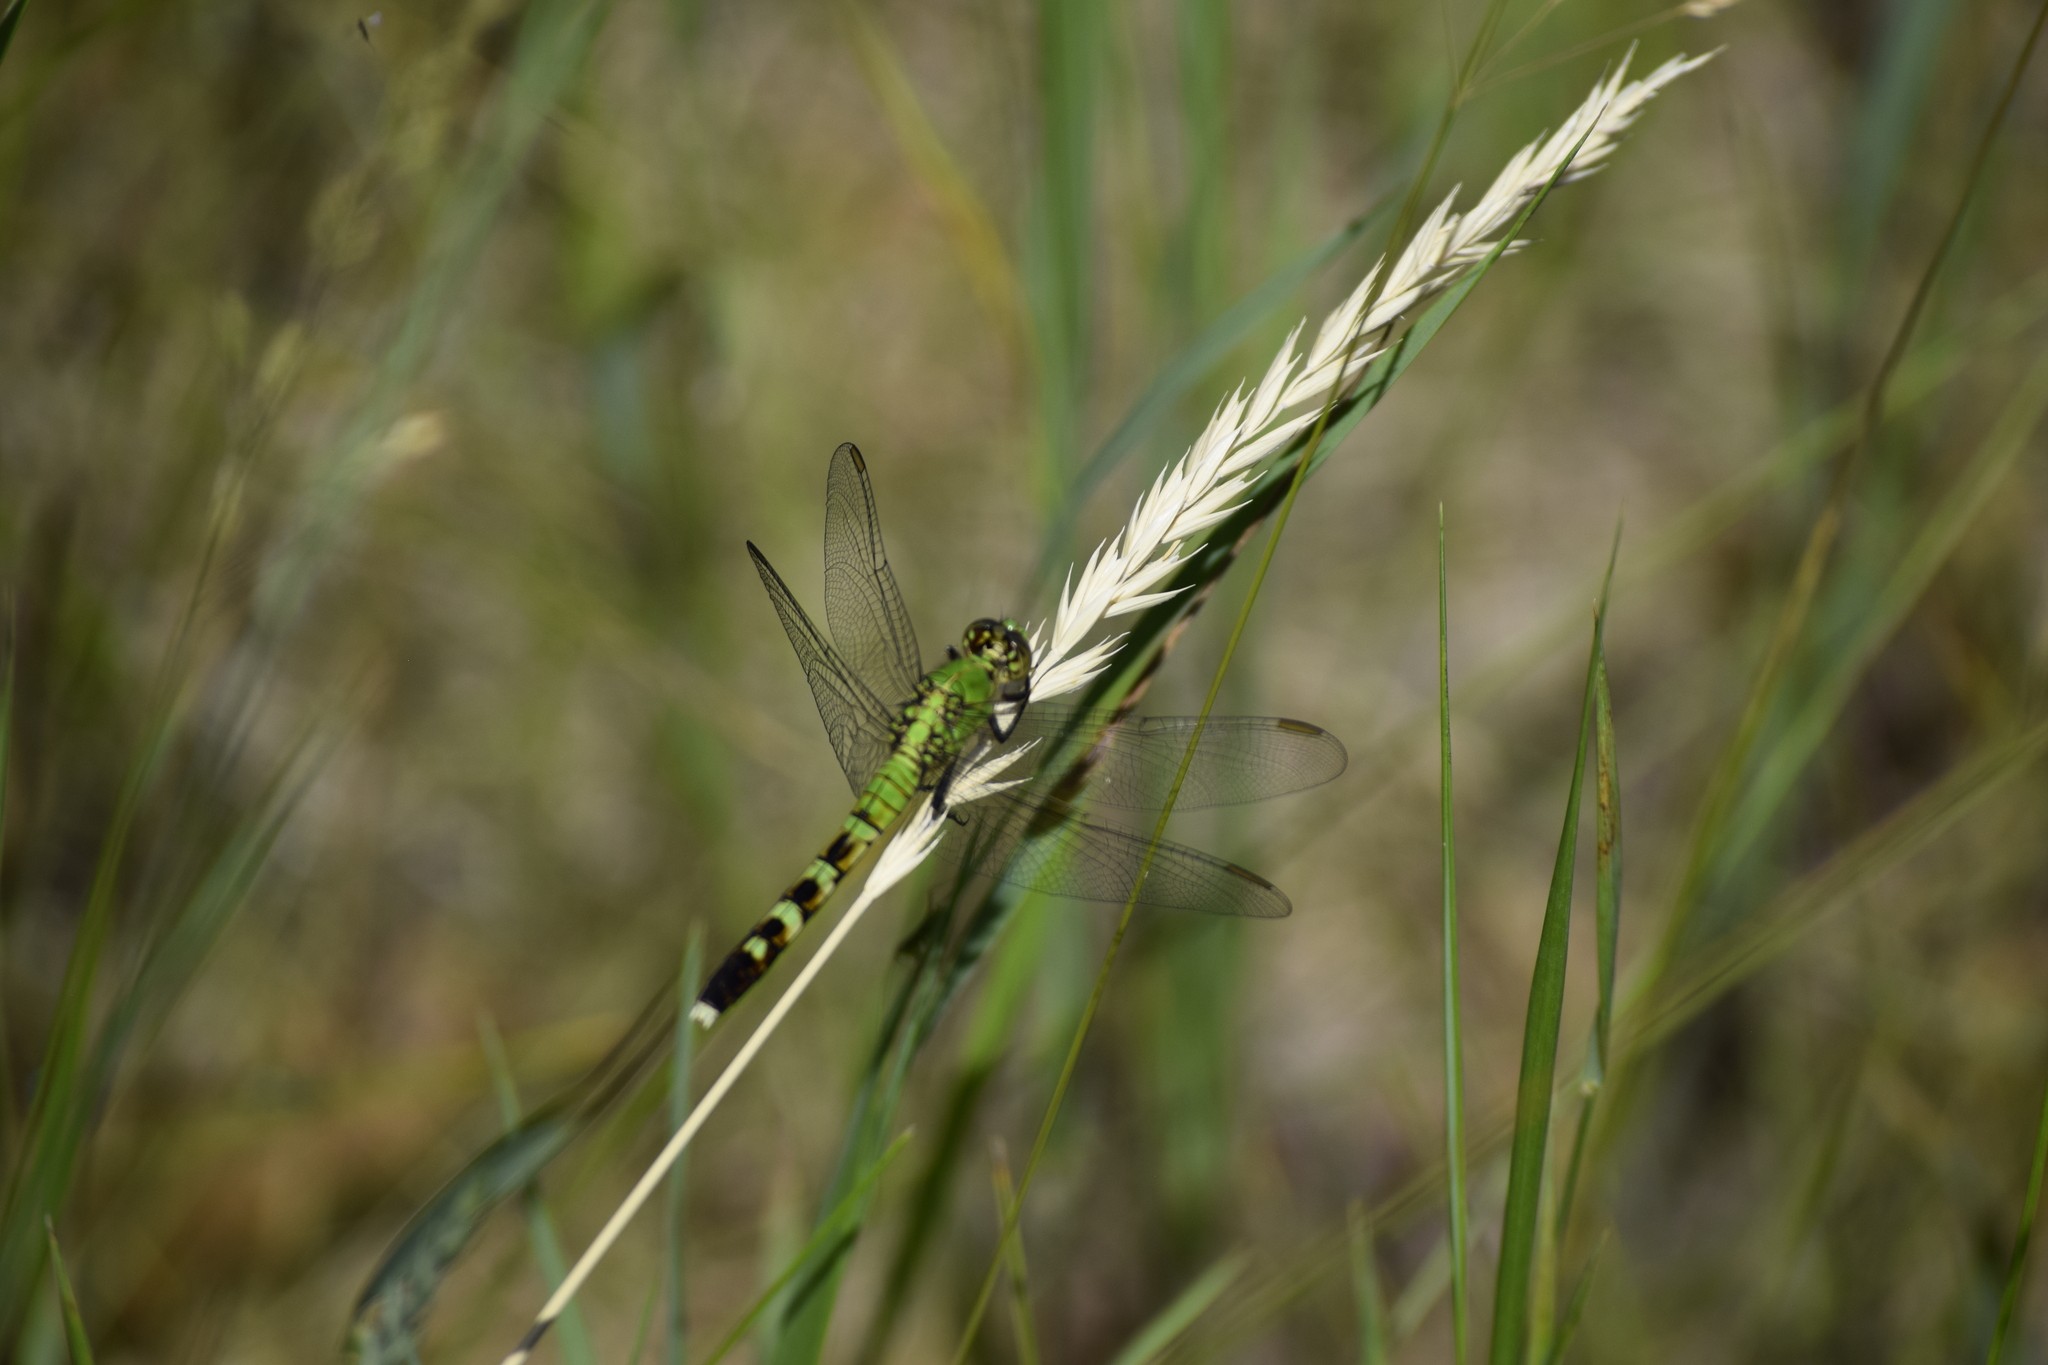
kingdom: Animalia
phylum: Arthropoda
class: Insecta
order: Odonata
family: Libellulidae
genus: Erythemis
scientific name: Erythemis simplicicollis
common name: Eastern pondhawk
